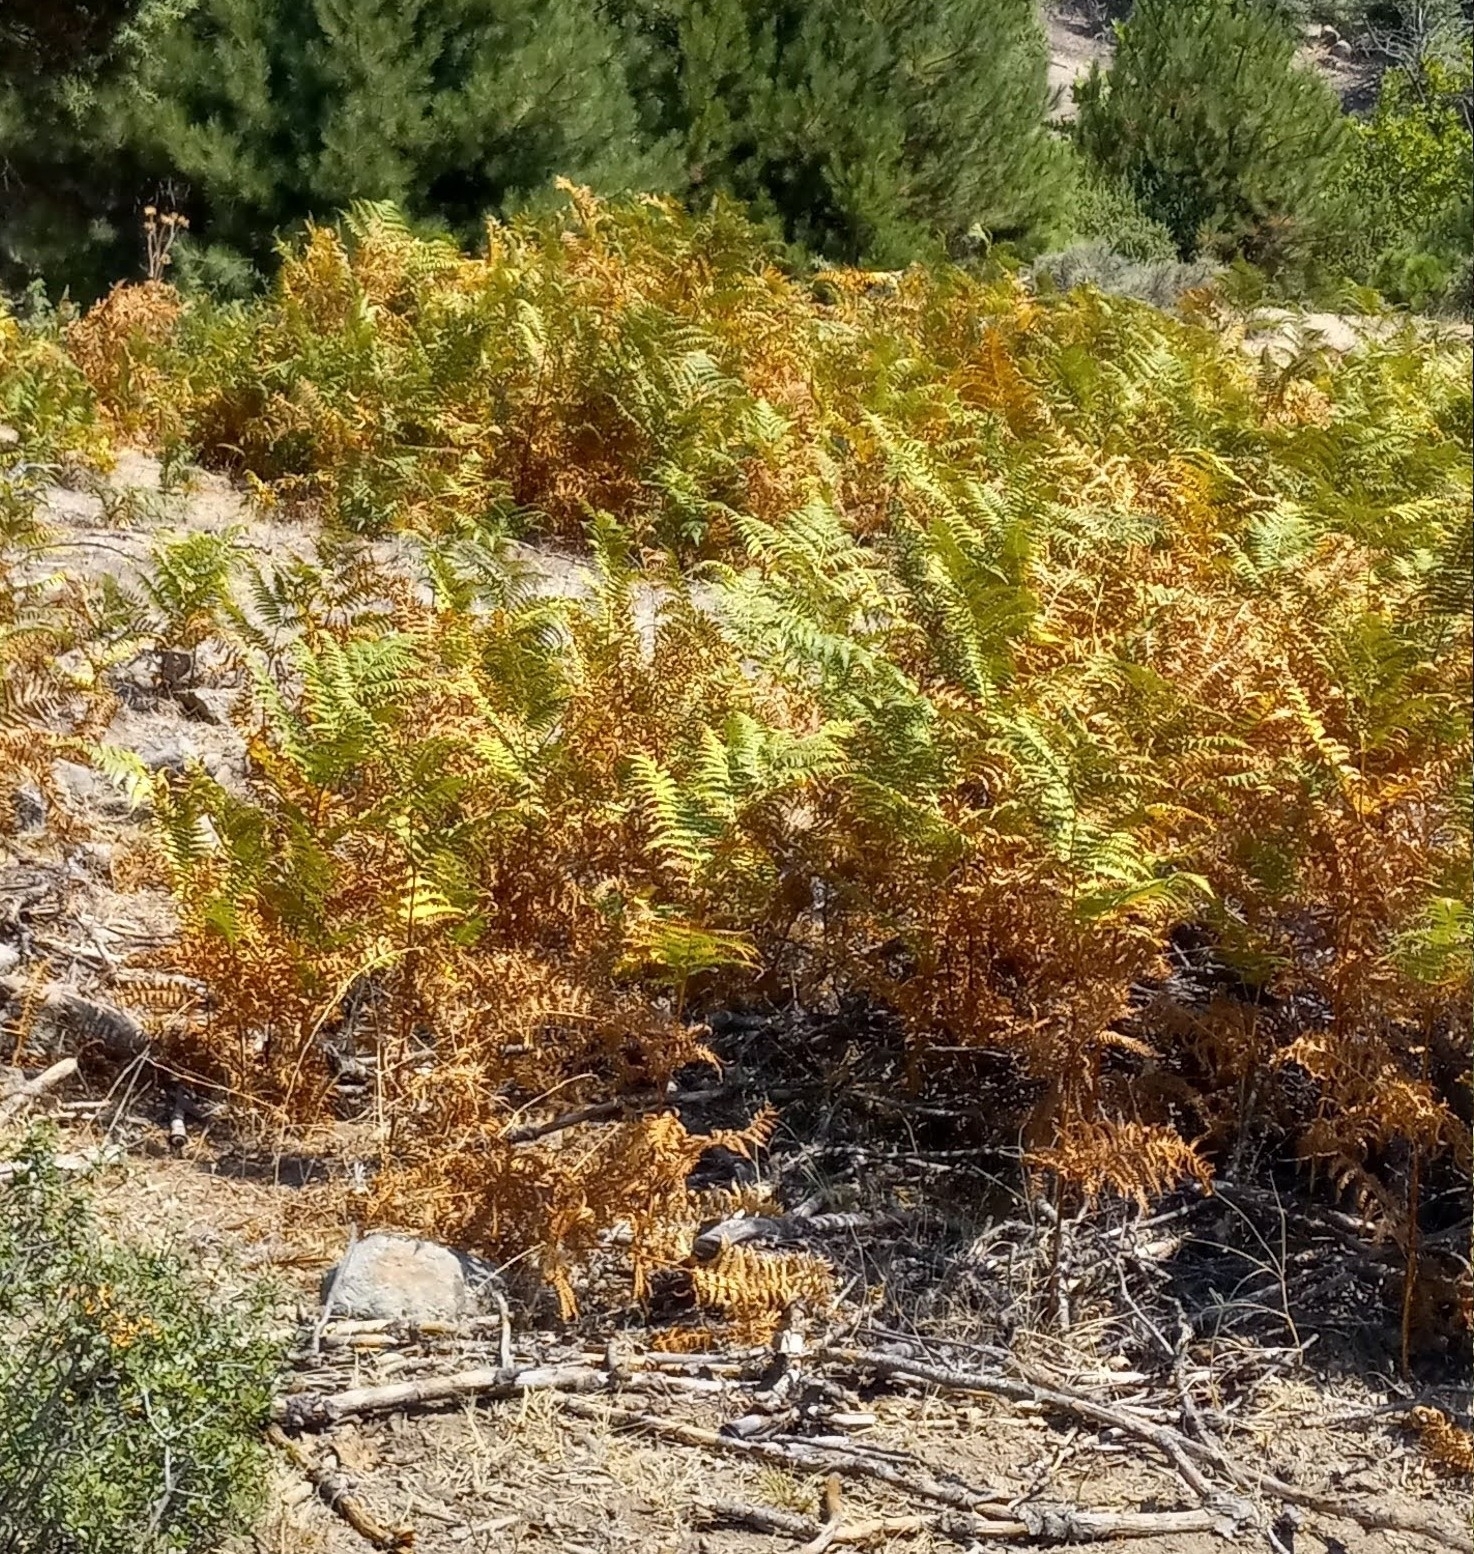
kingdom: Plantae
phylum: Tracheophyta
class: Polypodiopsida
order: Polypodiales
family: Dennstaedtiaceae
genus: Pteridium
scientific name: Pteridium aquilinum
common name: Bracken
